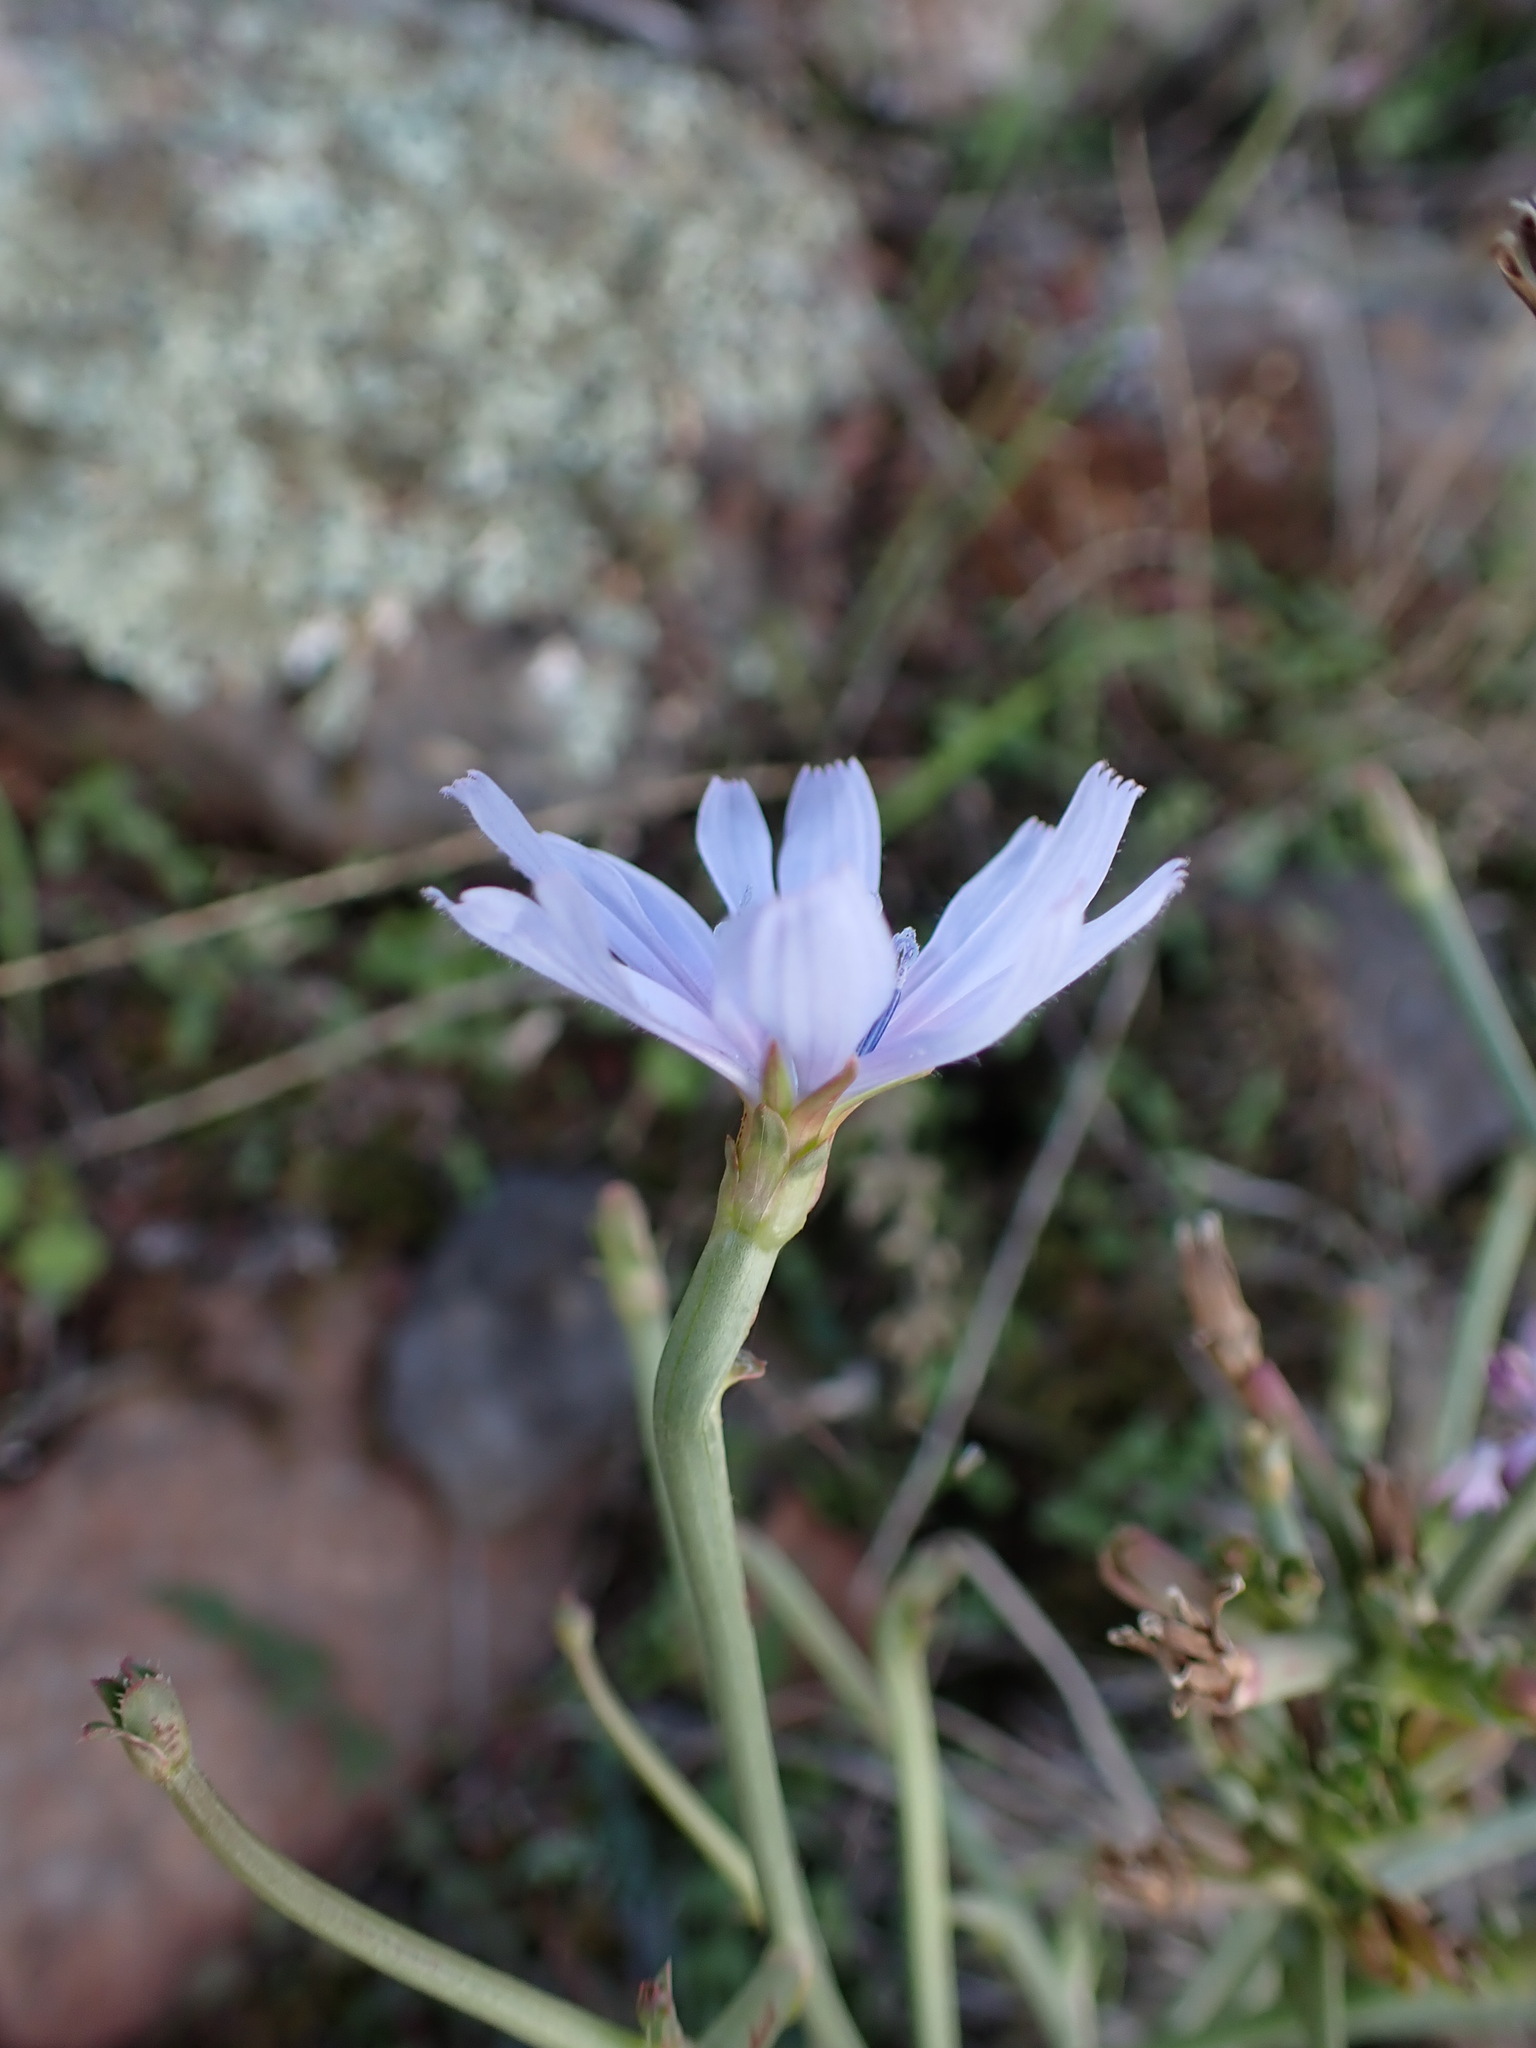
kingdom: Plantae
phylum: Tracheophyta
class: Magnoliopsida
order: Asterales
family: Asteraceae
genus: Cichorium
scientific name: Cichorium intybus
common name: Chicory
